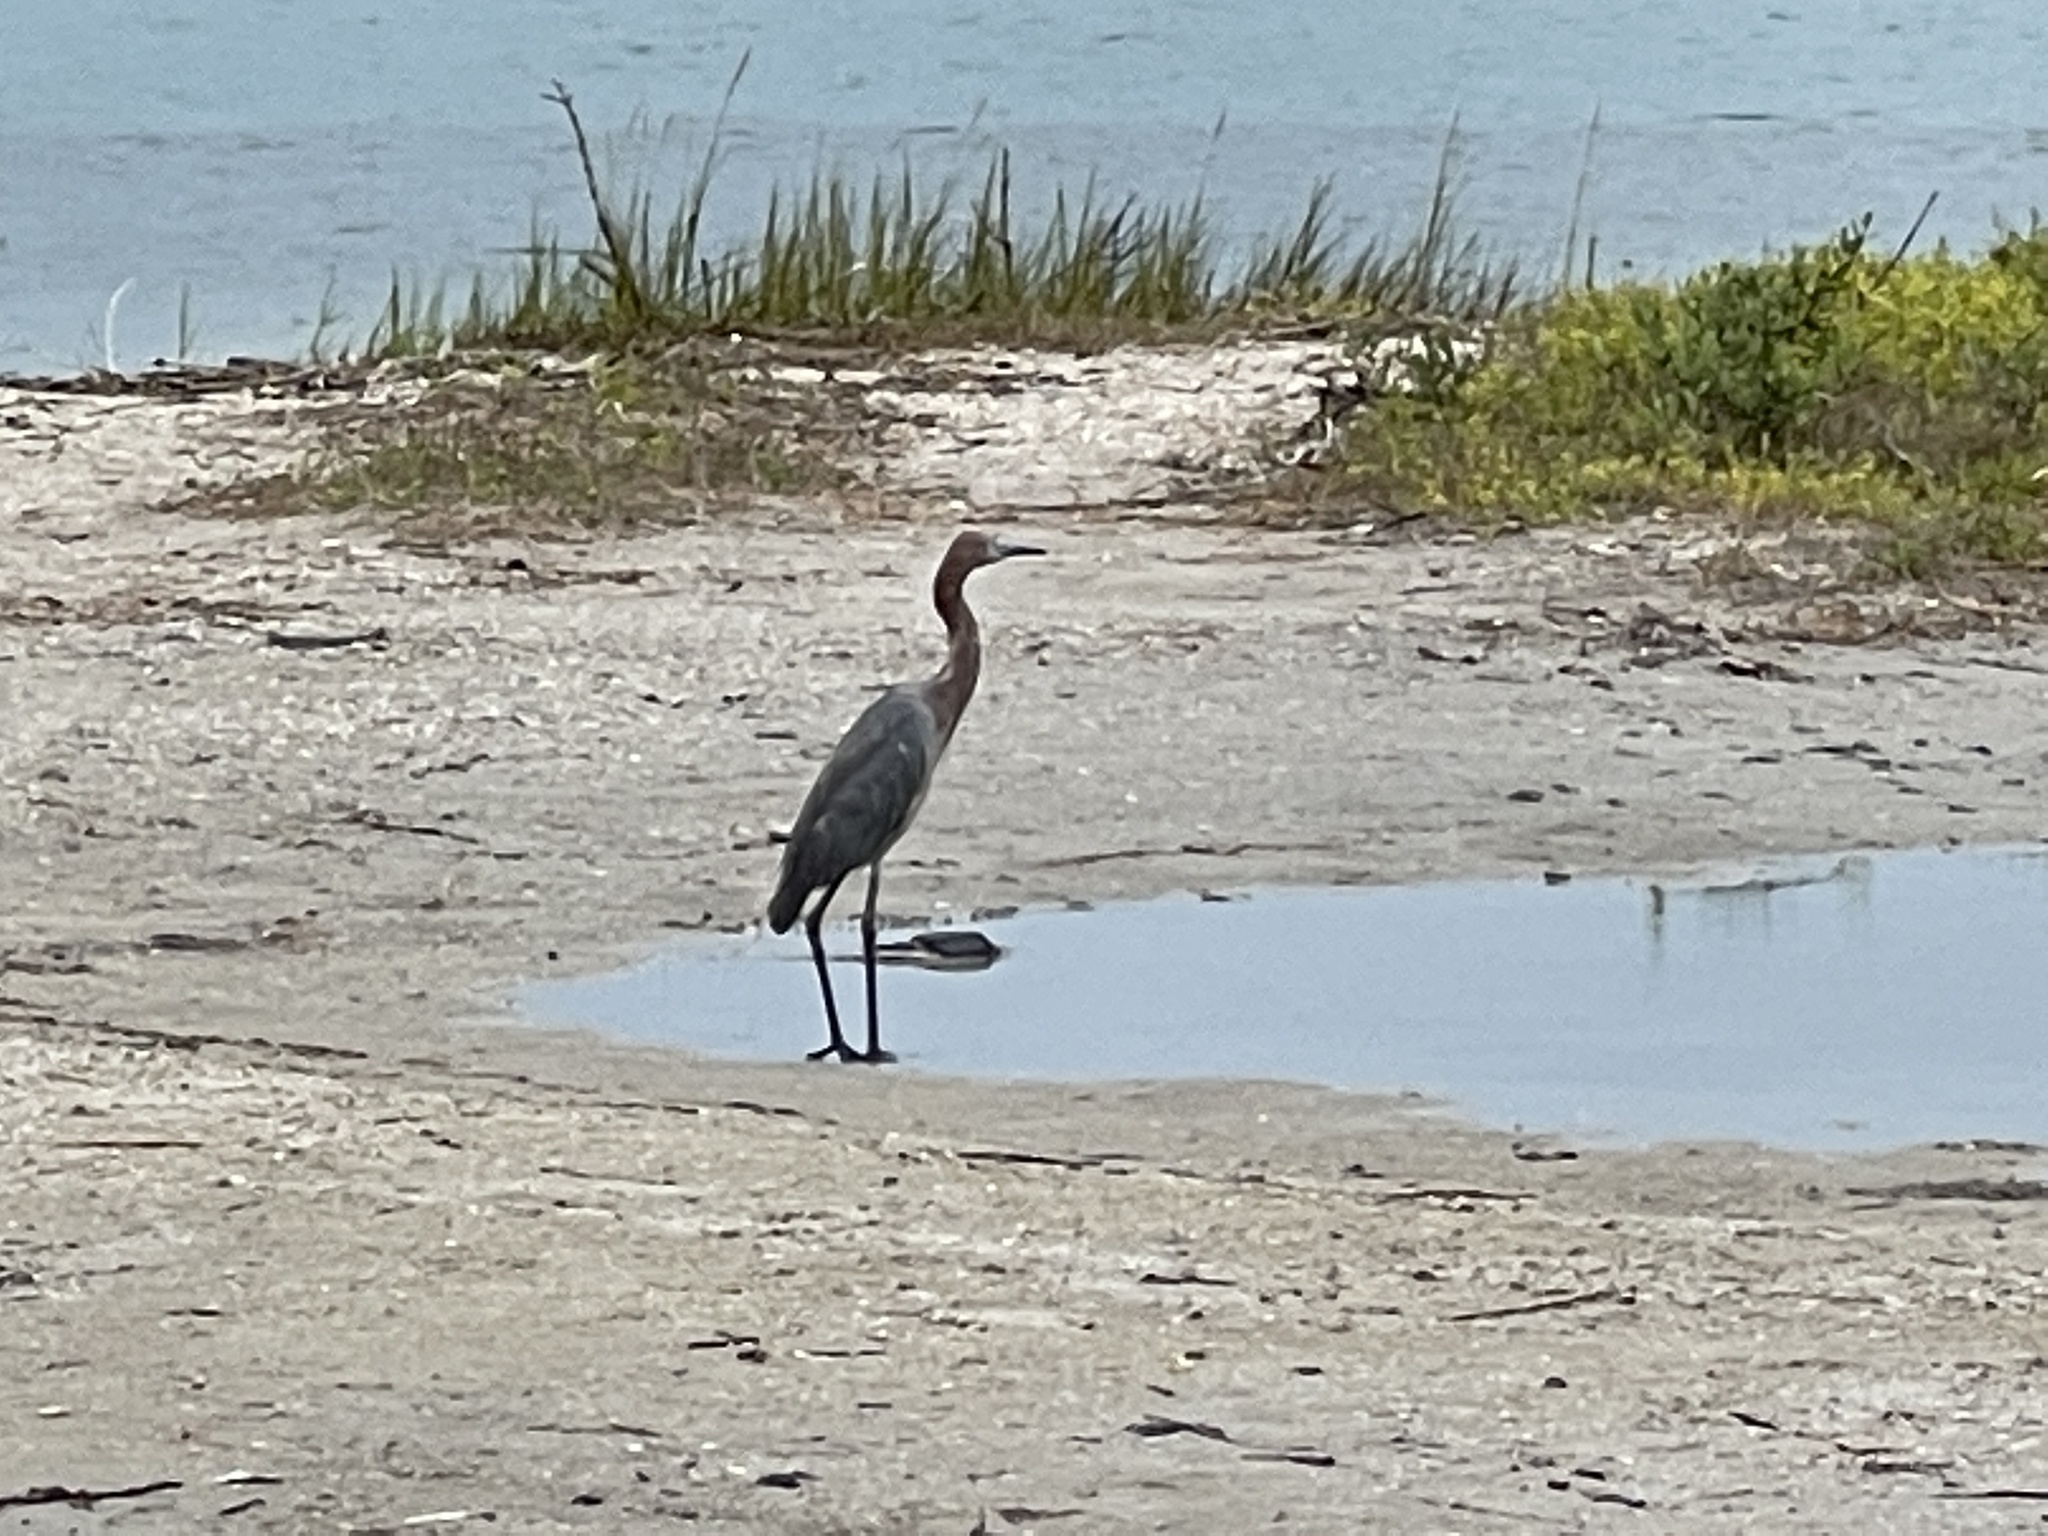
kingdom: Animalia
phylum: Chordata
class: Aves
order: Pelecaniformes
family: Ardeidae
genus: Egretta
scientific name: Egretta rufescens
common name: Reddish egret
